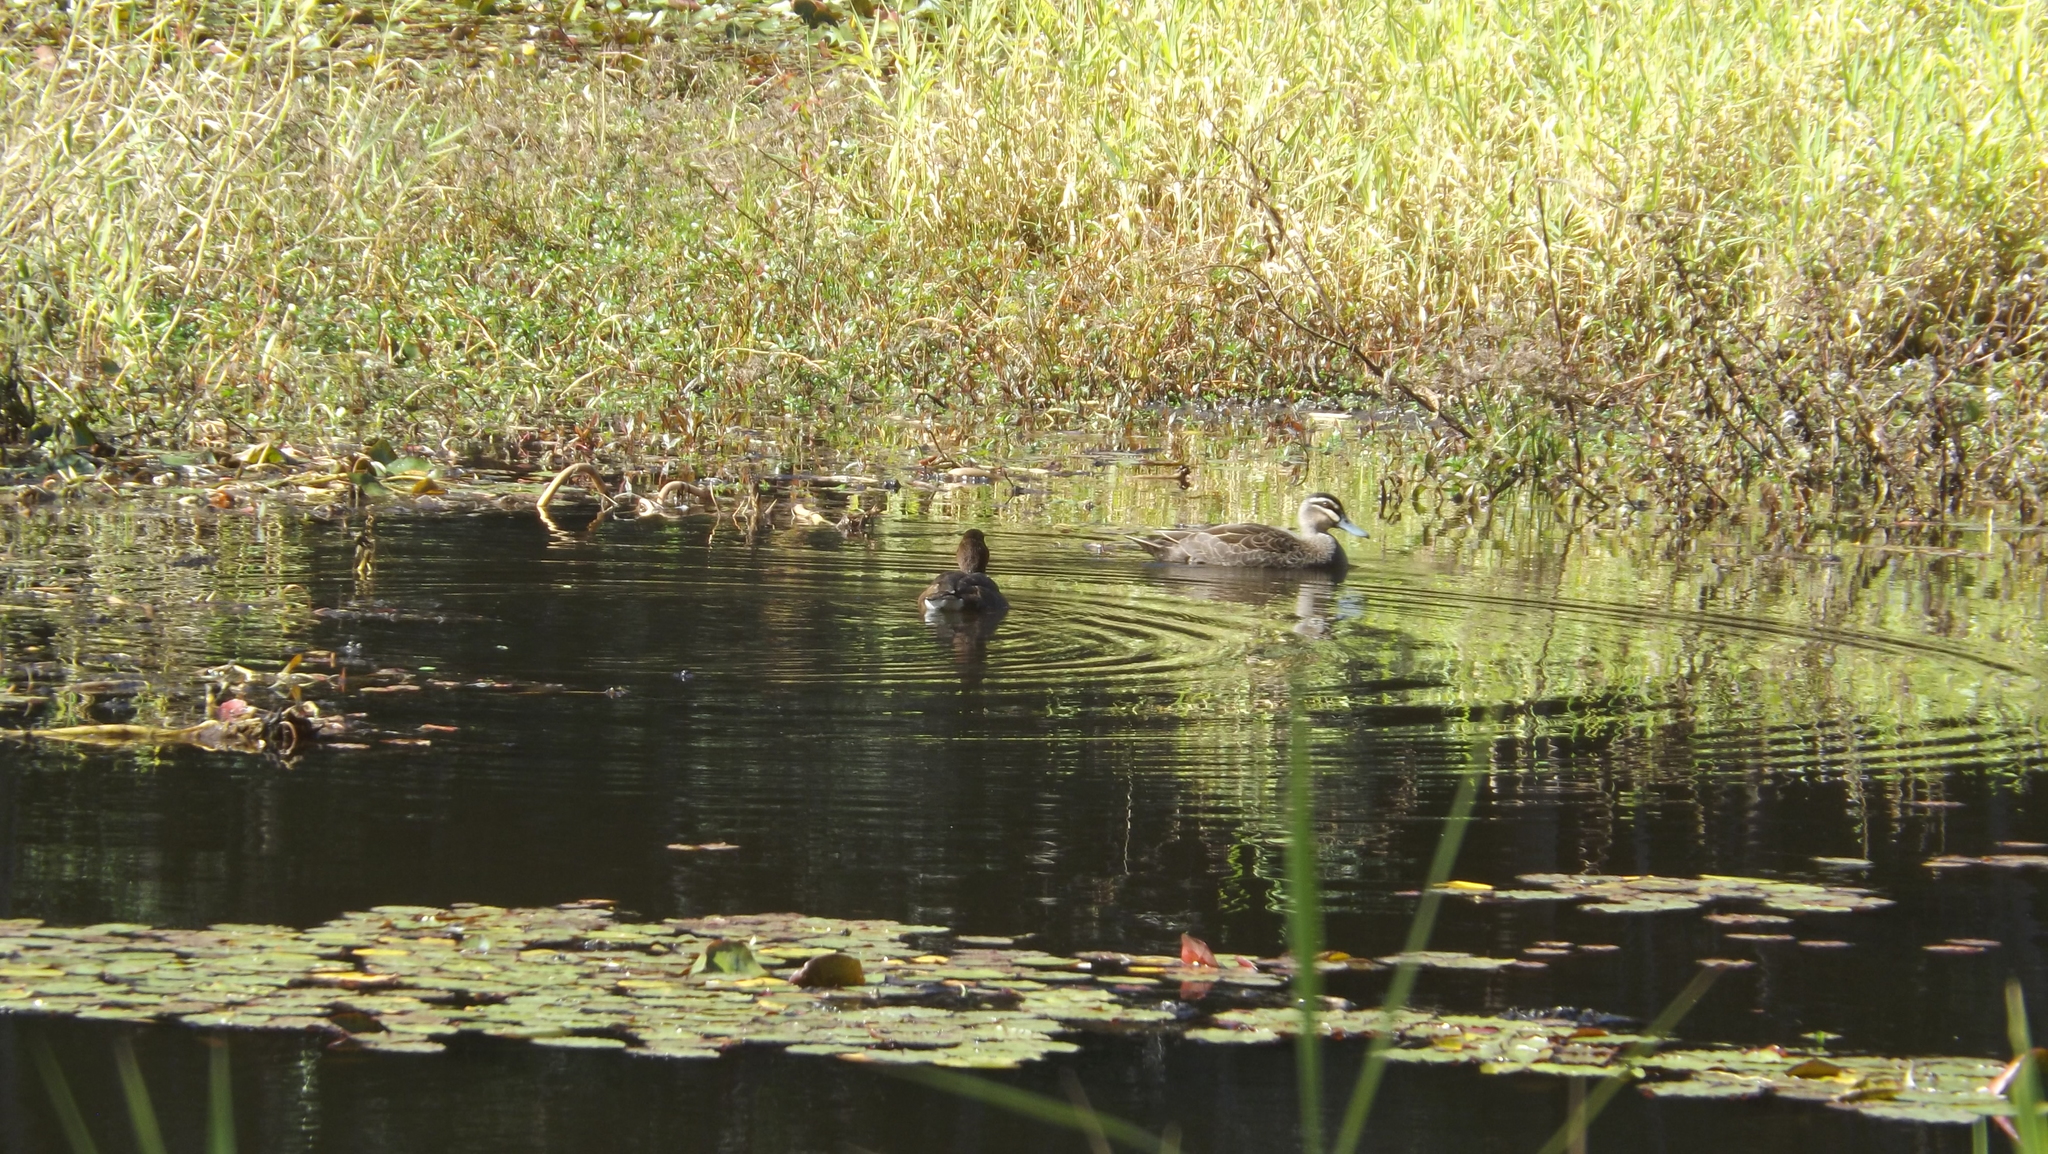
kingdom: Animalia
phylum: Chordata
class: Aves
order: Anseriformes
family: Anatidae
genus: Anas
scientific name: Anas superciliosa
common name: Pacific black duck
